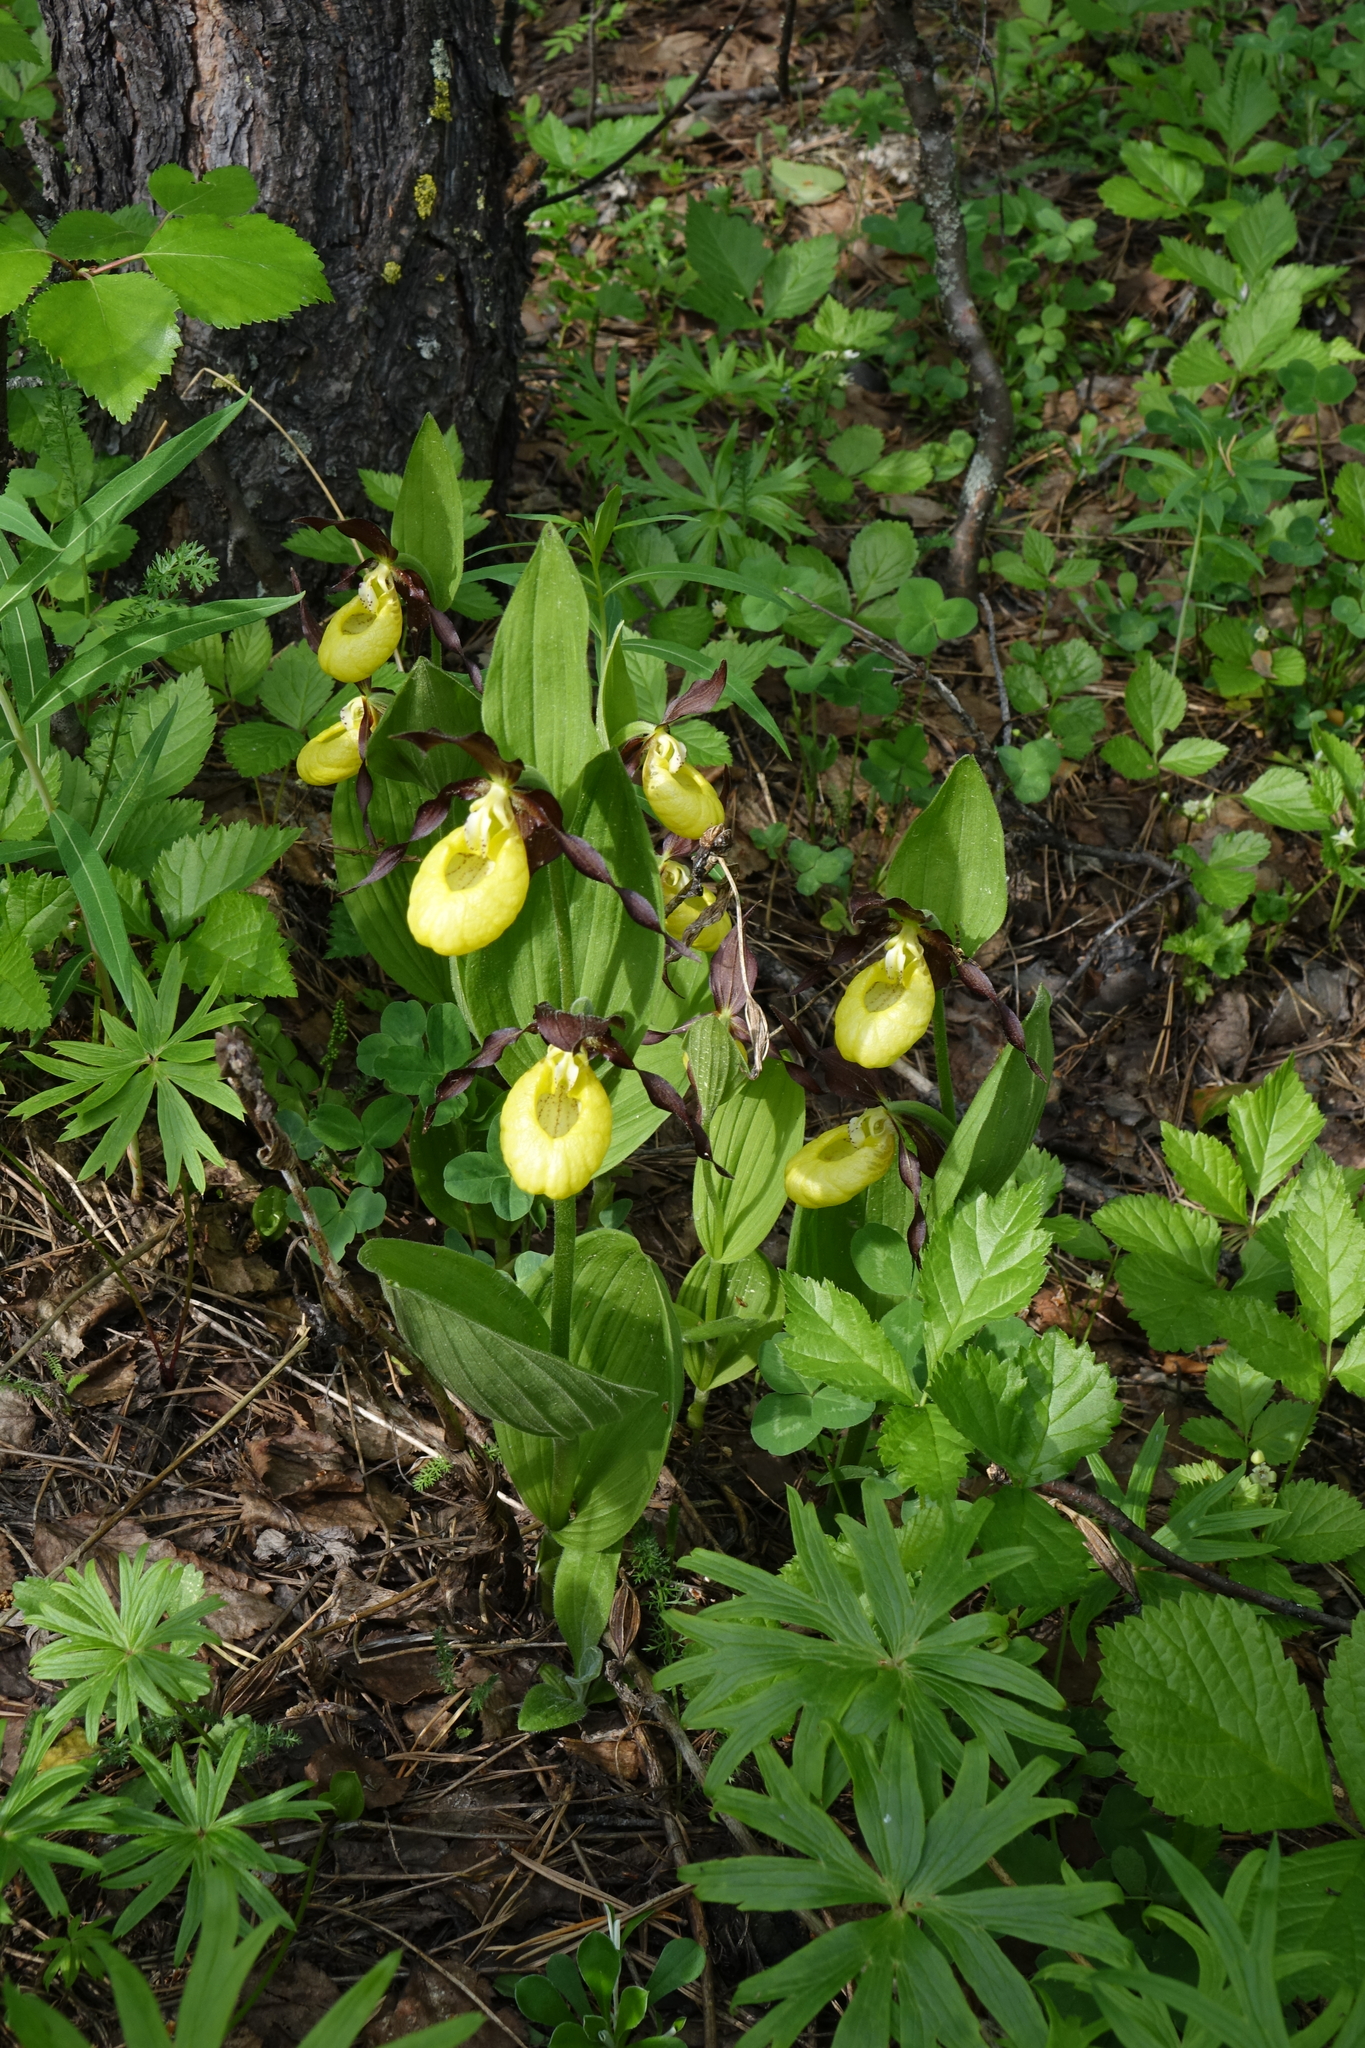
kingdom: Plantae
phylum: Tracheophyta
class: Liliopsida
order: Asparagales
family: Orchidaceae
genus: Cypripedium
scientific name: Cypripedium calceolus
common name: Lady's-slipper
